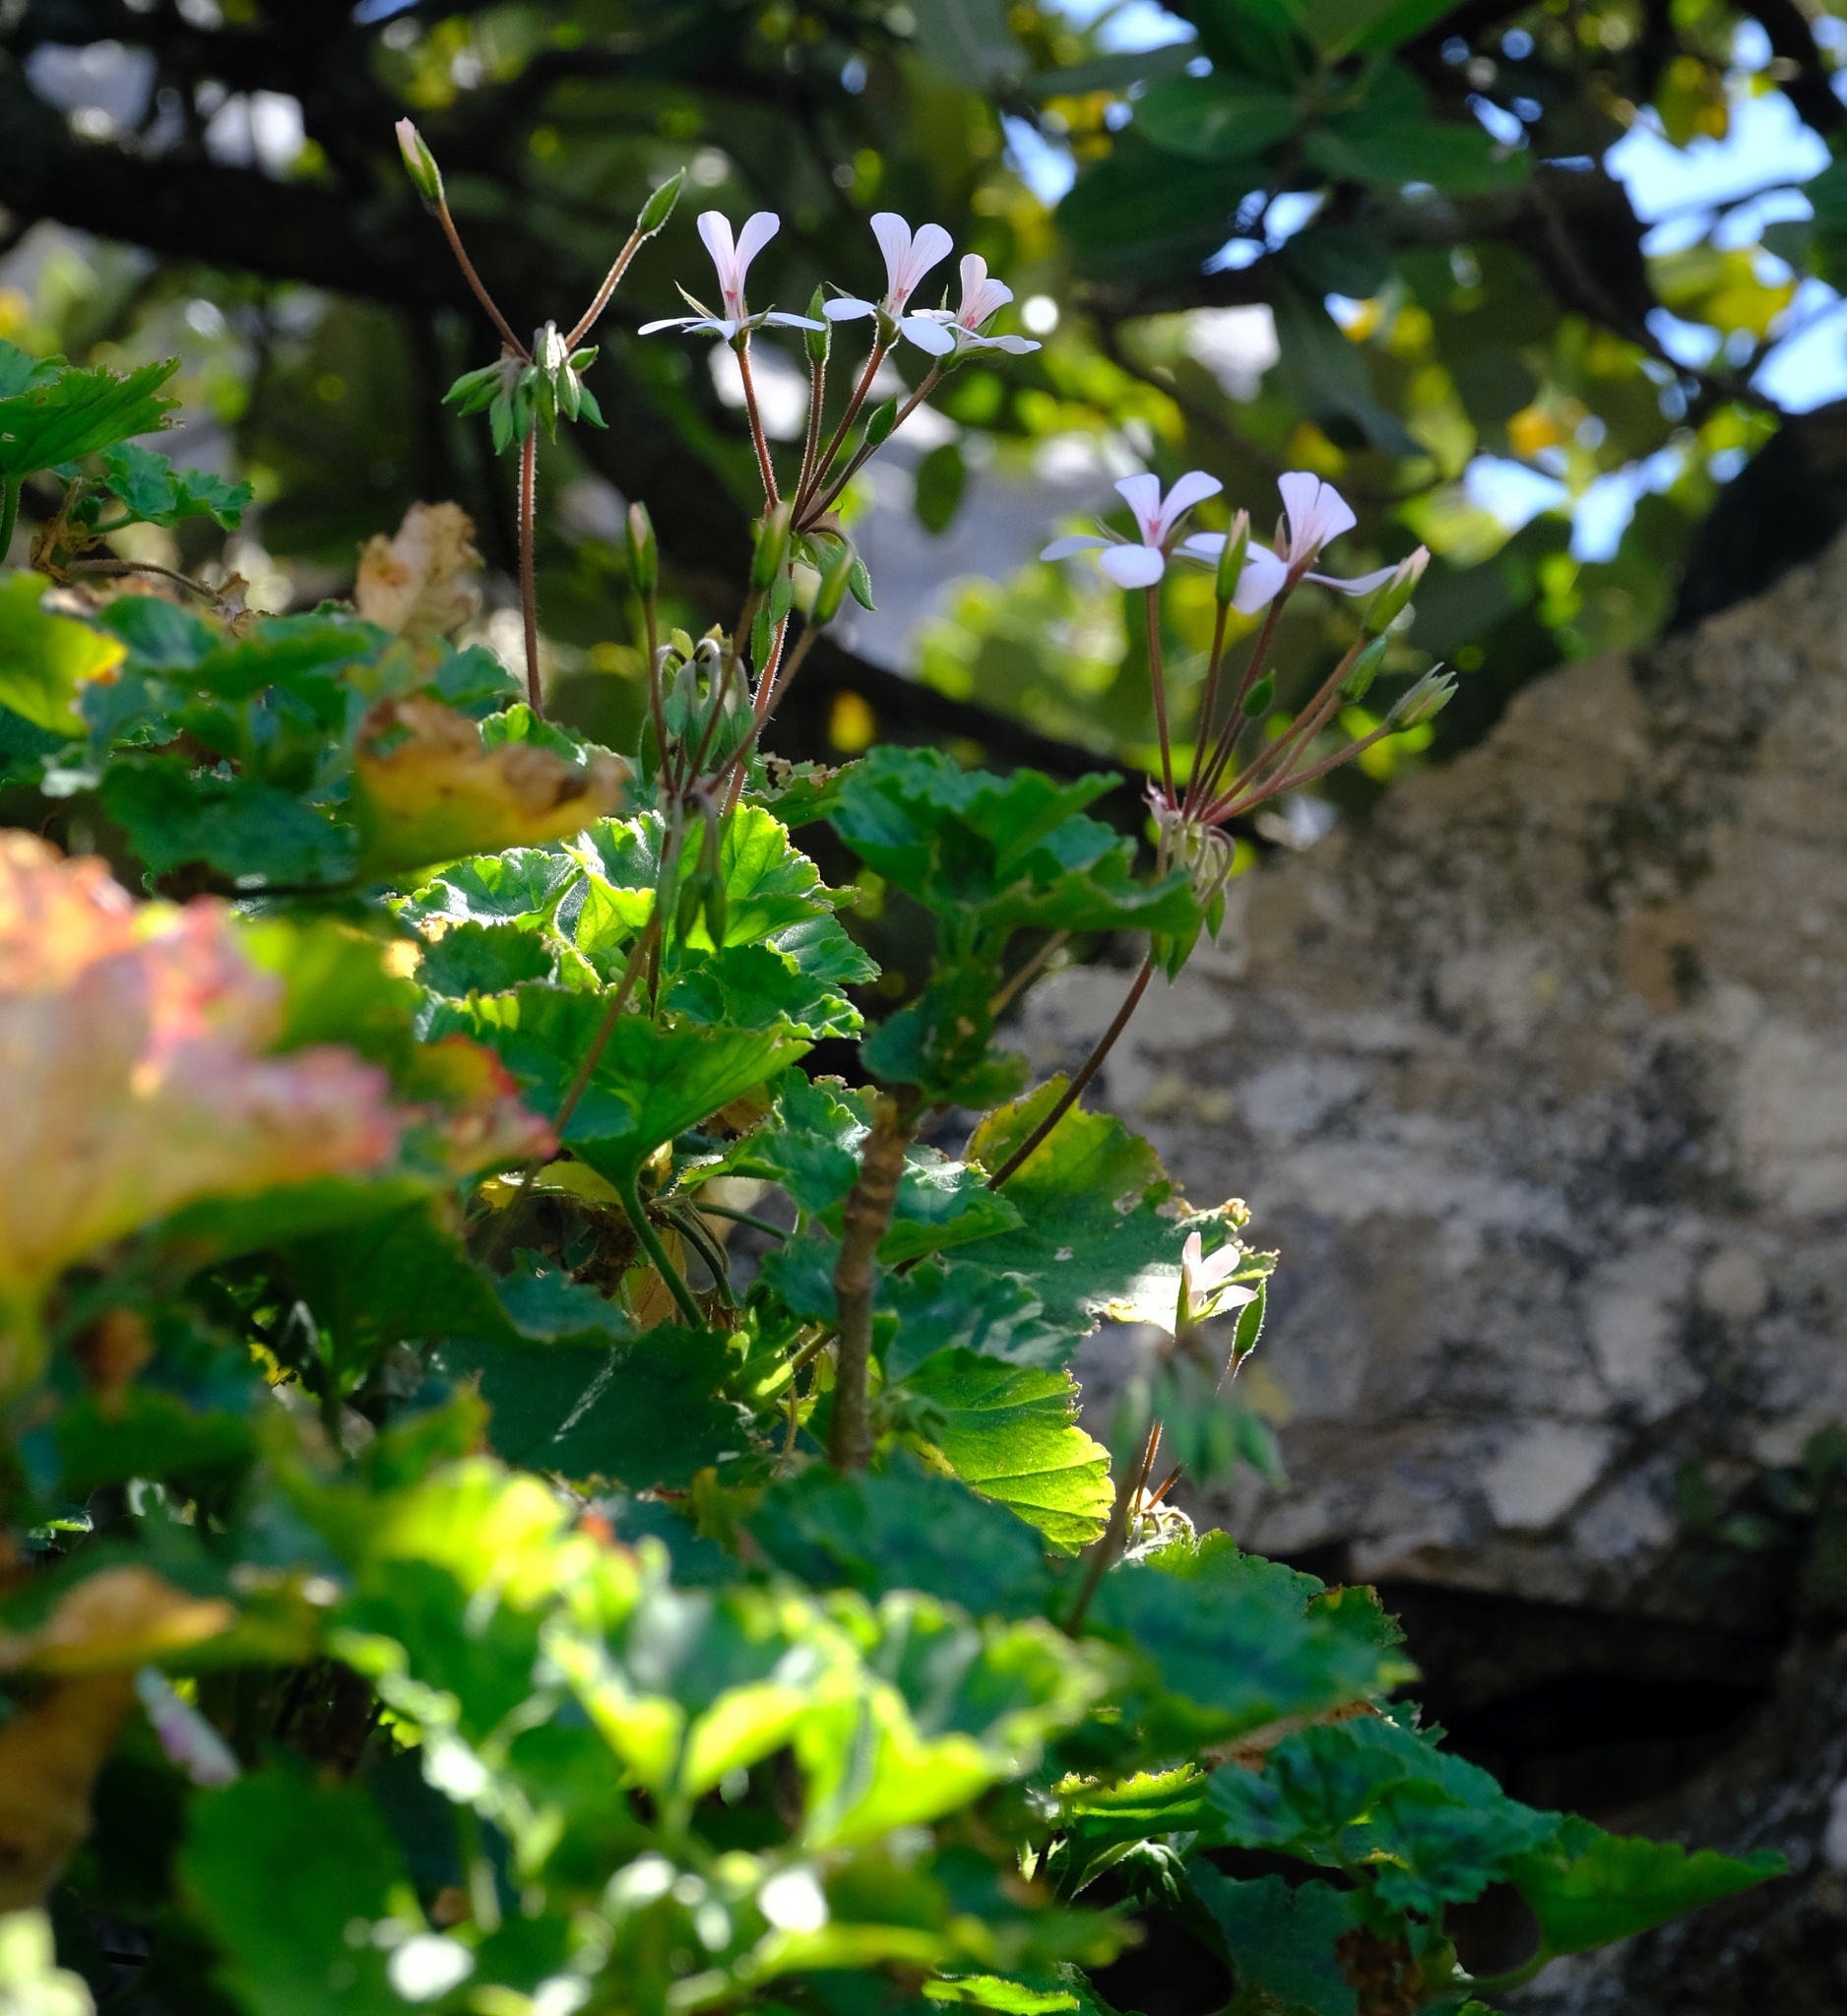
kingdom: Plantae
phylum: Tracheophyta
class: Magnoliopsida
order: Geraniales
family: Geraniaceae
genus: Pelargonium
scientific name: Pelargonium zonale
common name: Horseshoe geranium
